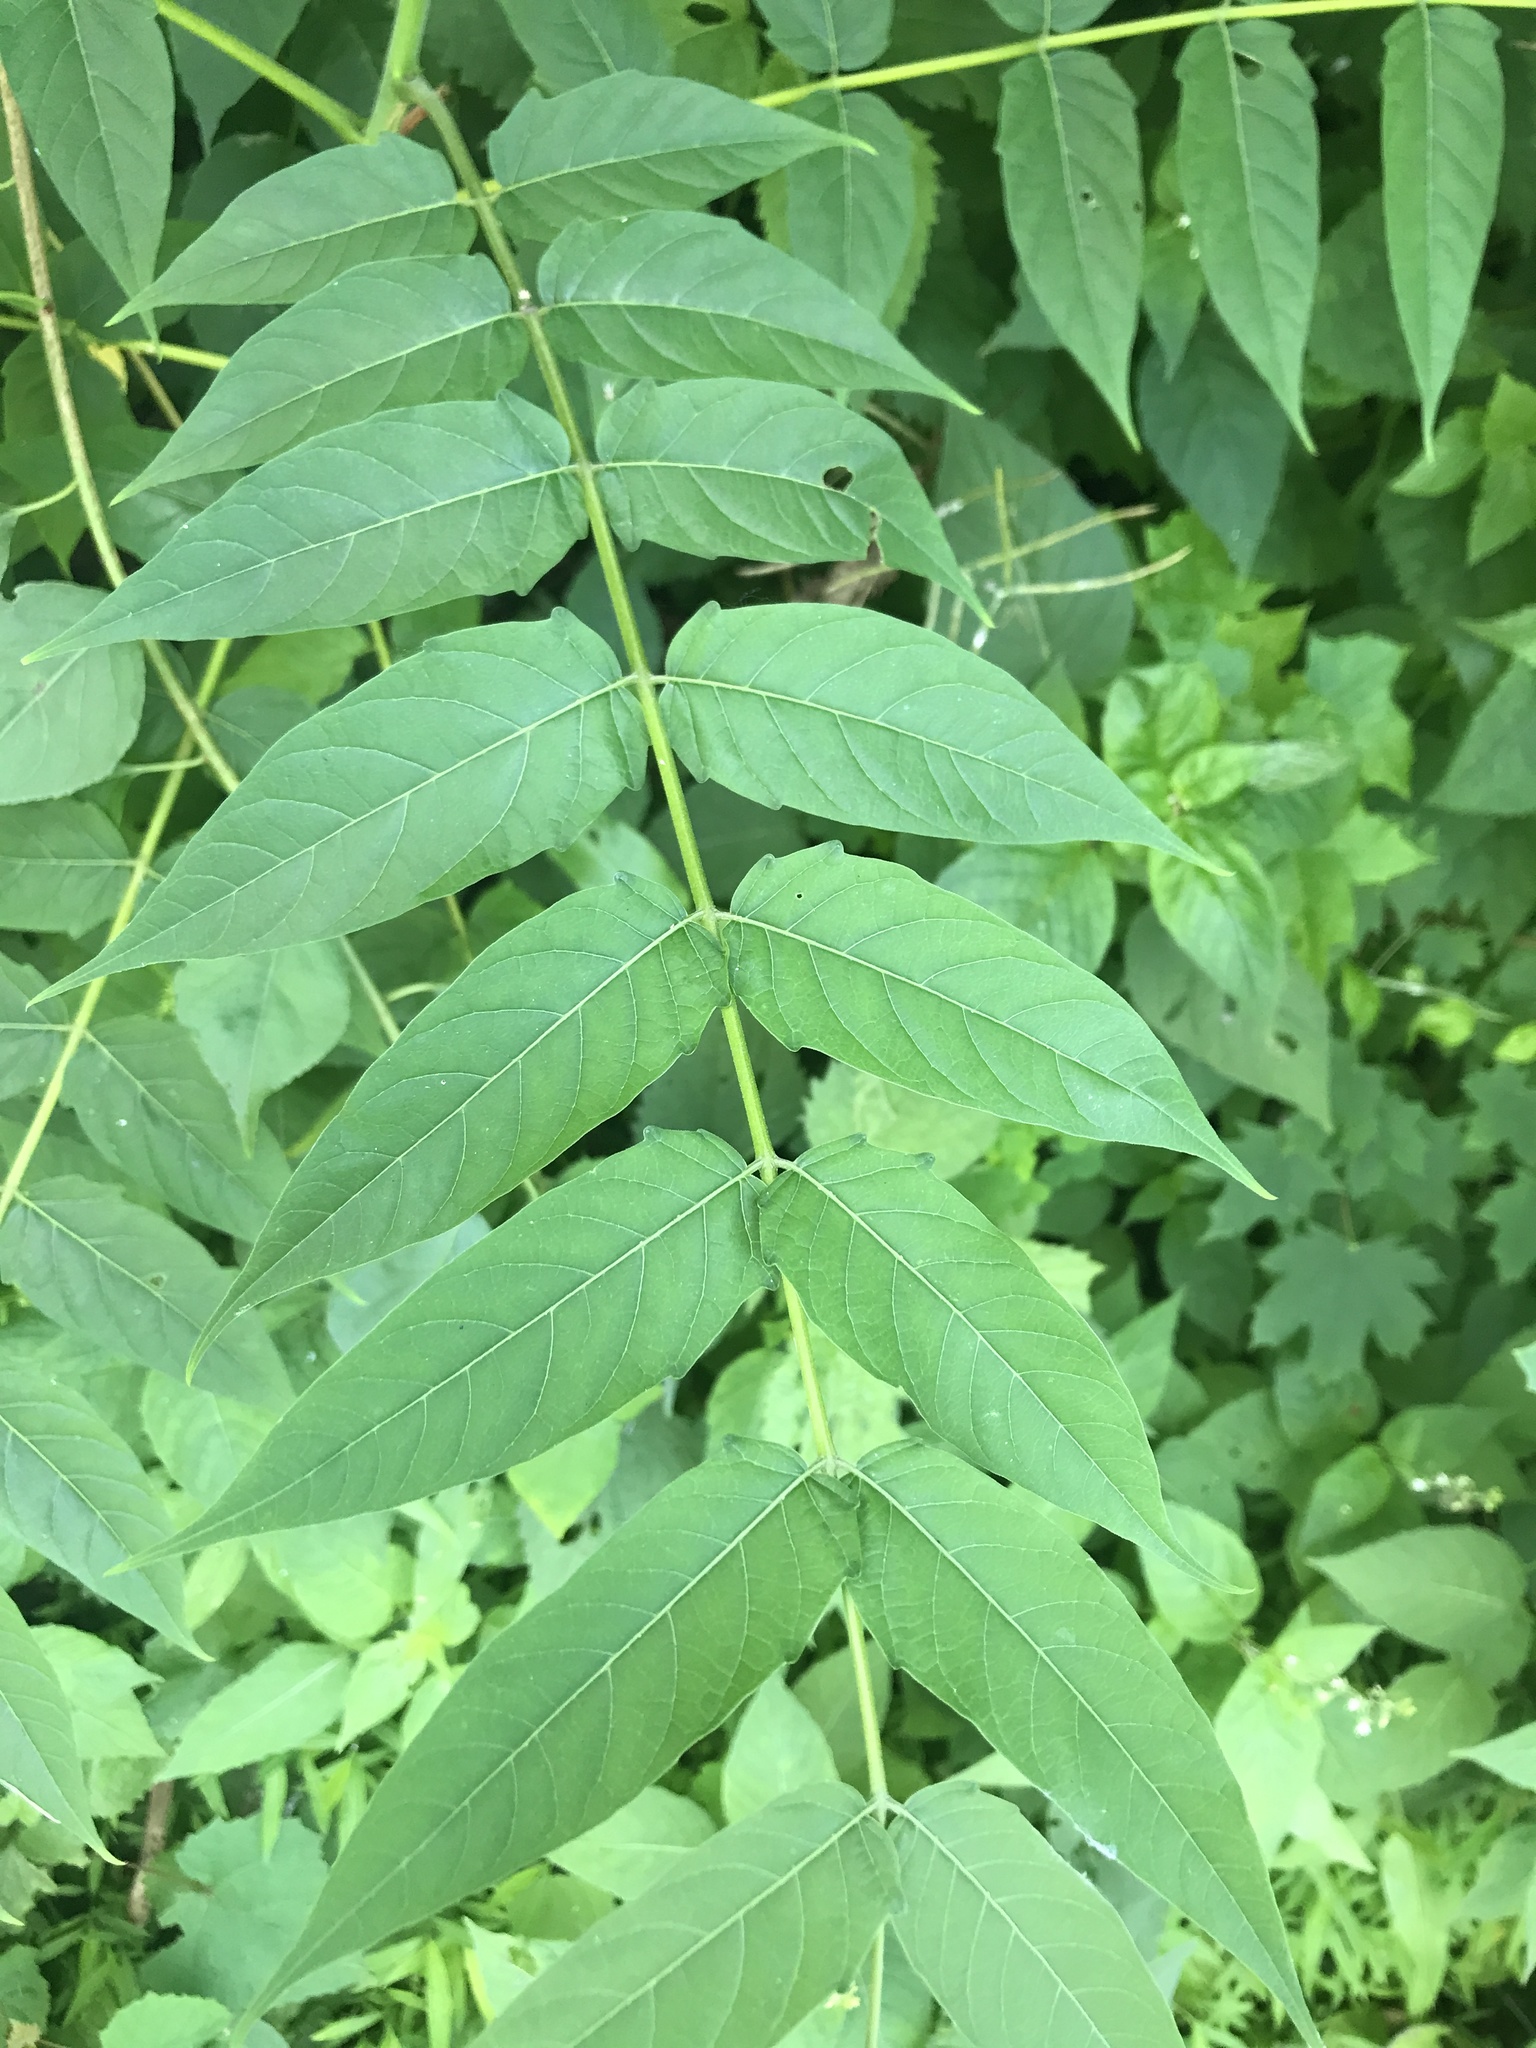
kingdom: Plantae
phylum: Tracheophyta
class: Magnoliopsida
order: Sapindales
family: Simaroubaceae
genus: Ailanthus
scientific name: Ailanthus altissima
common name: Tree-of-heaven
